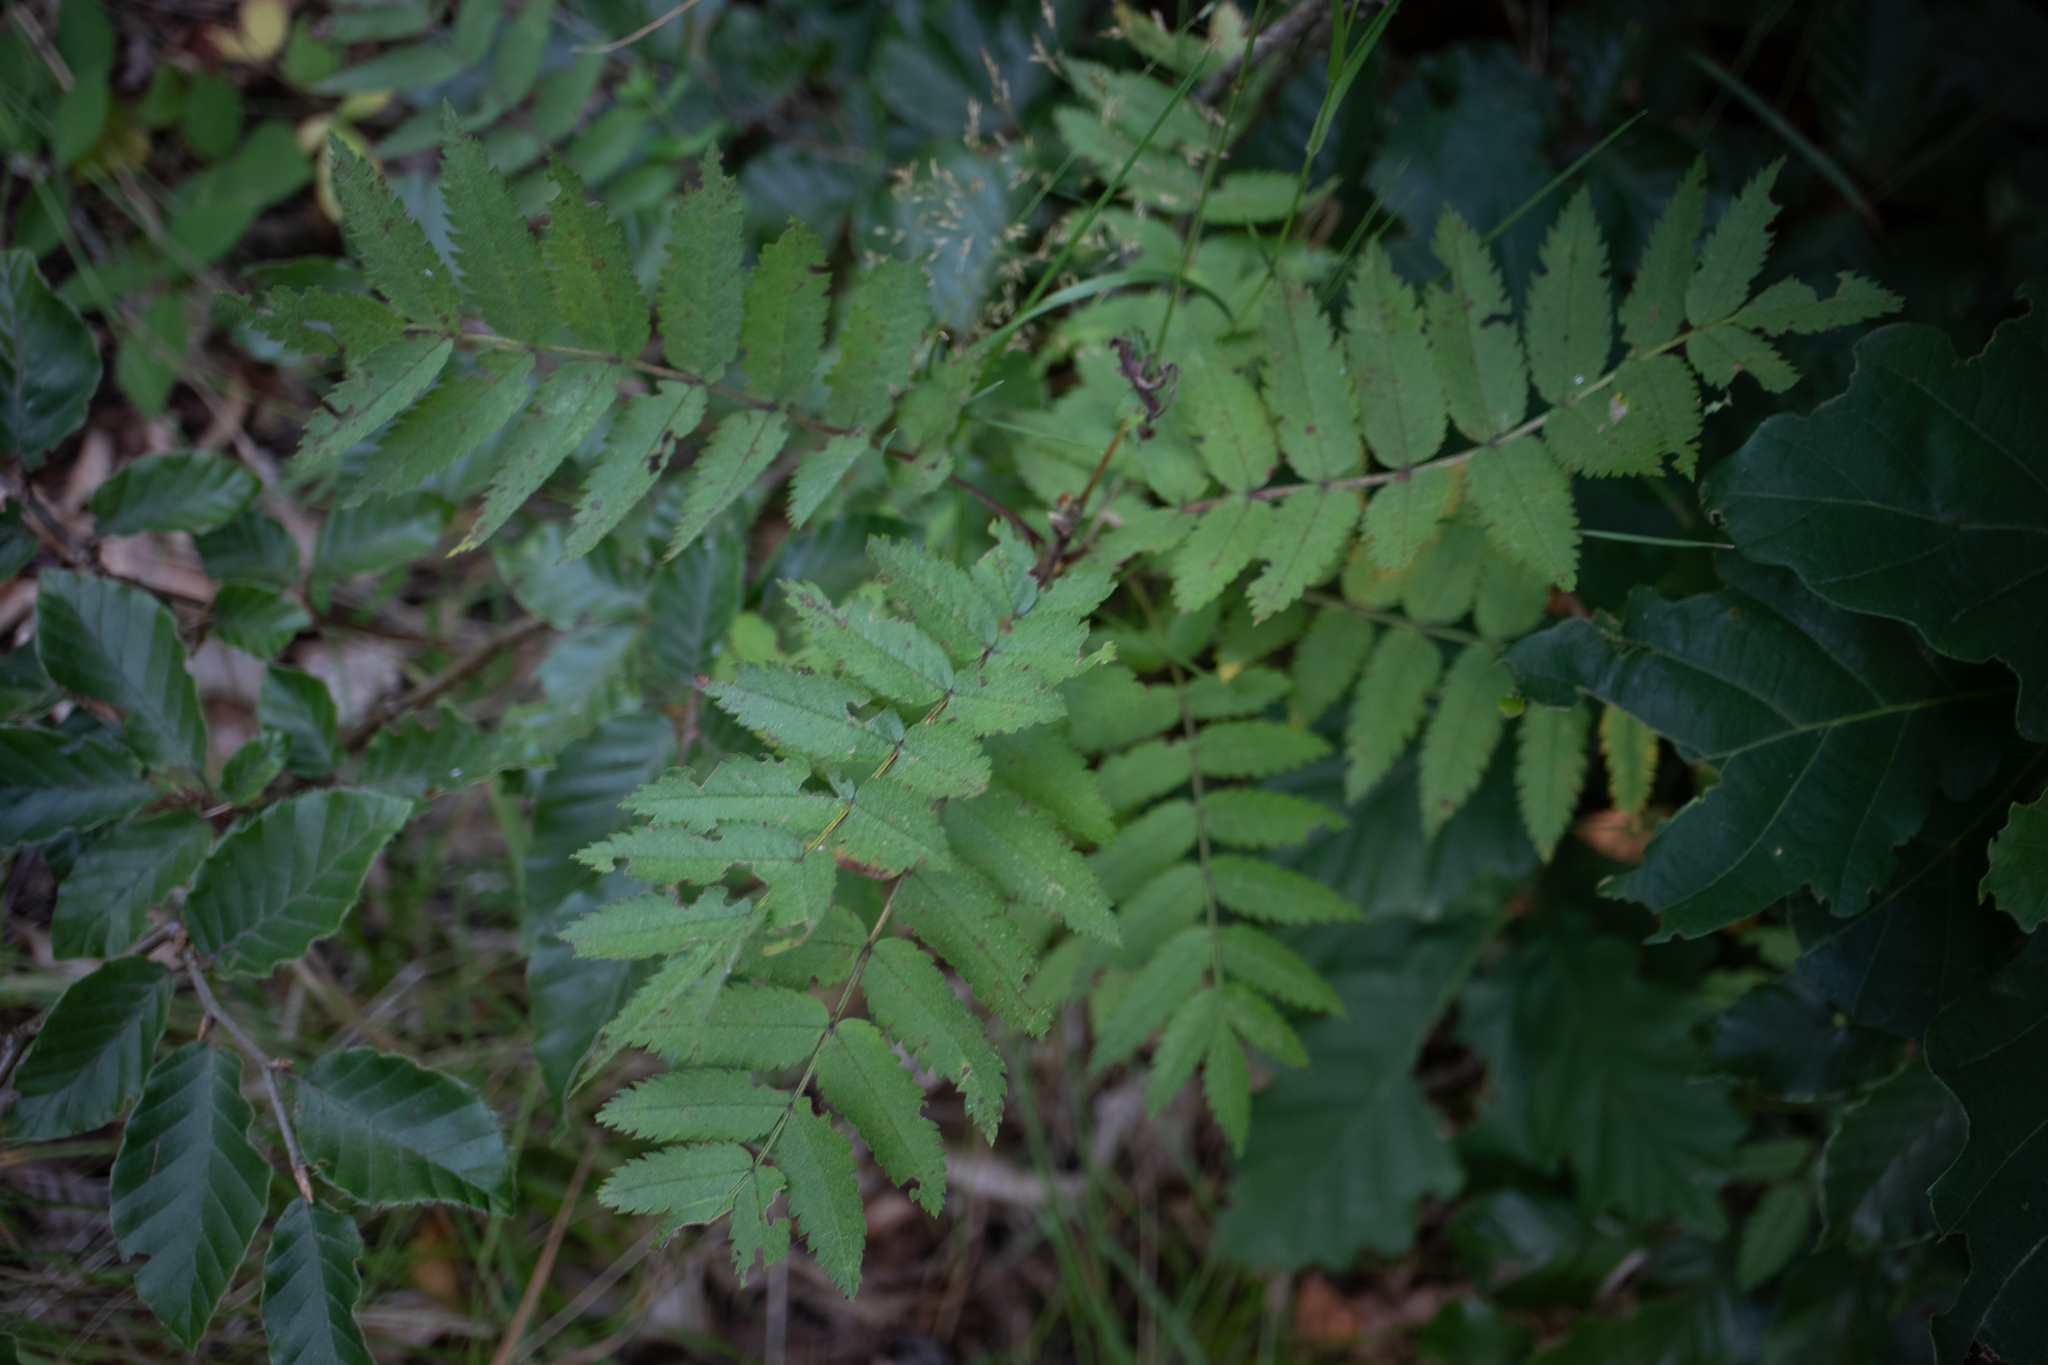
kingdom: Plantae
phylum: Tracheophyta
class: Magnoliopsida
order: Rosales
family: Rosaceae
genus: Sorbus
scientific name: Sorbus aucuparia
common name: Rowan
